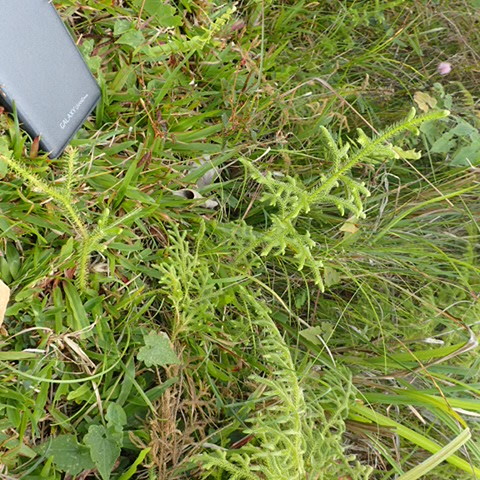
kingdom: Plantae
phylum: Tracheophyta
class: Lycopodiopsida
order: Lycopodiales
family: Lycopodiaceae
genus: Palhinhaea
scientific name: Palhinhaea cernua
